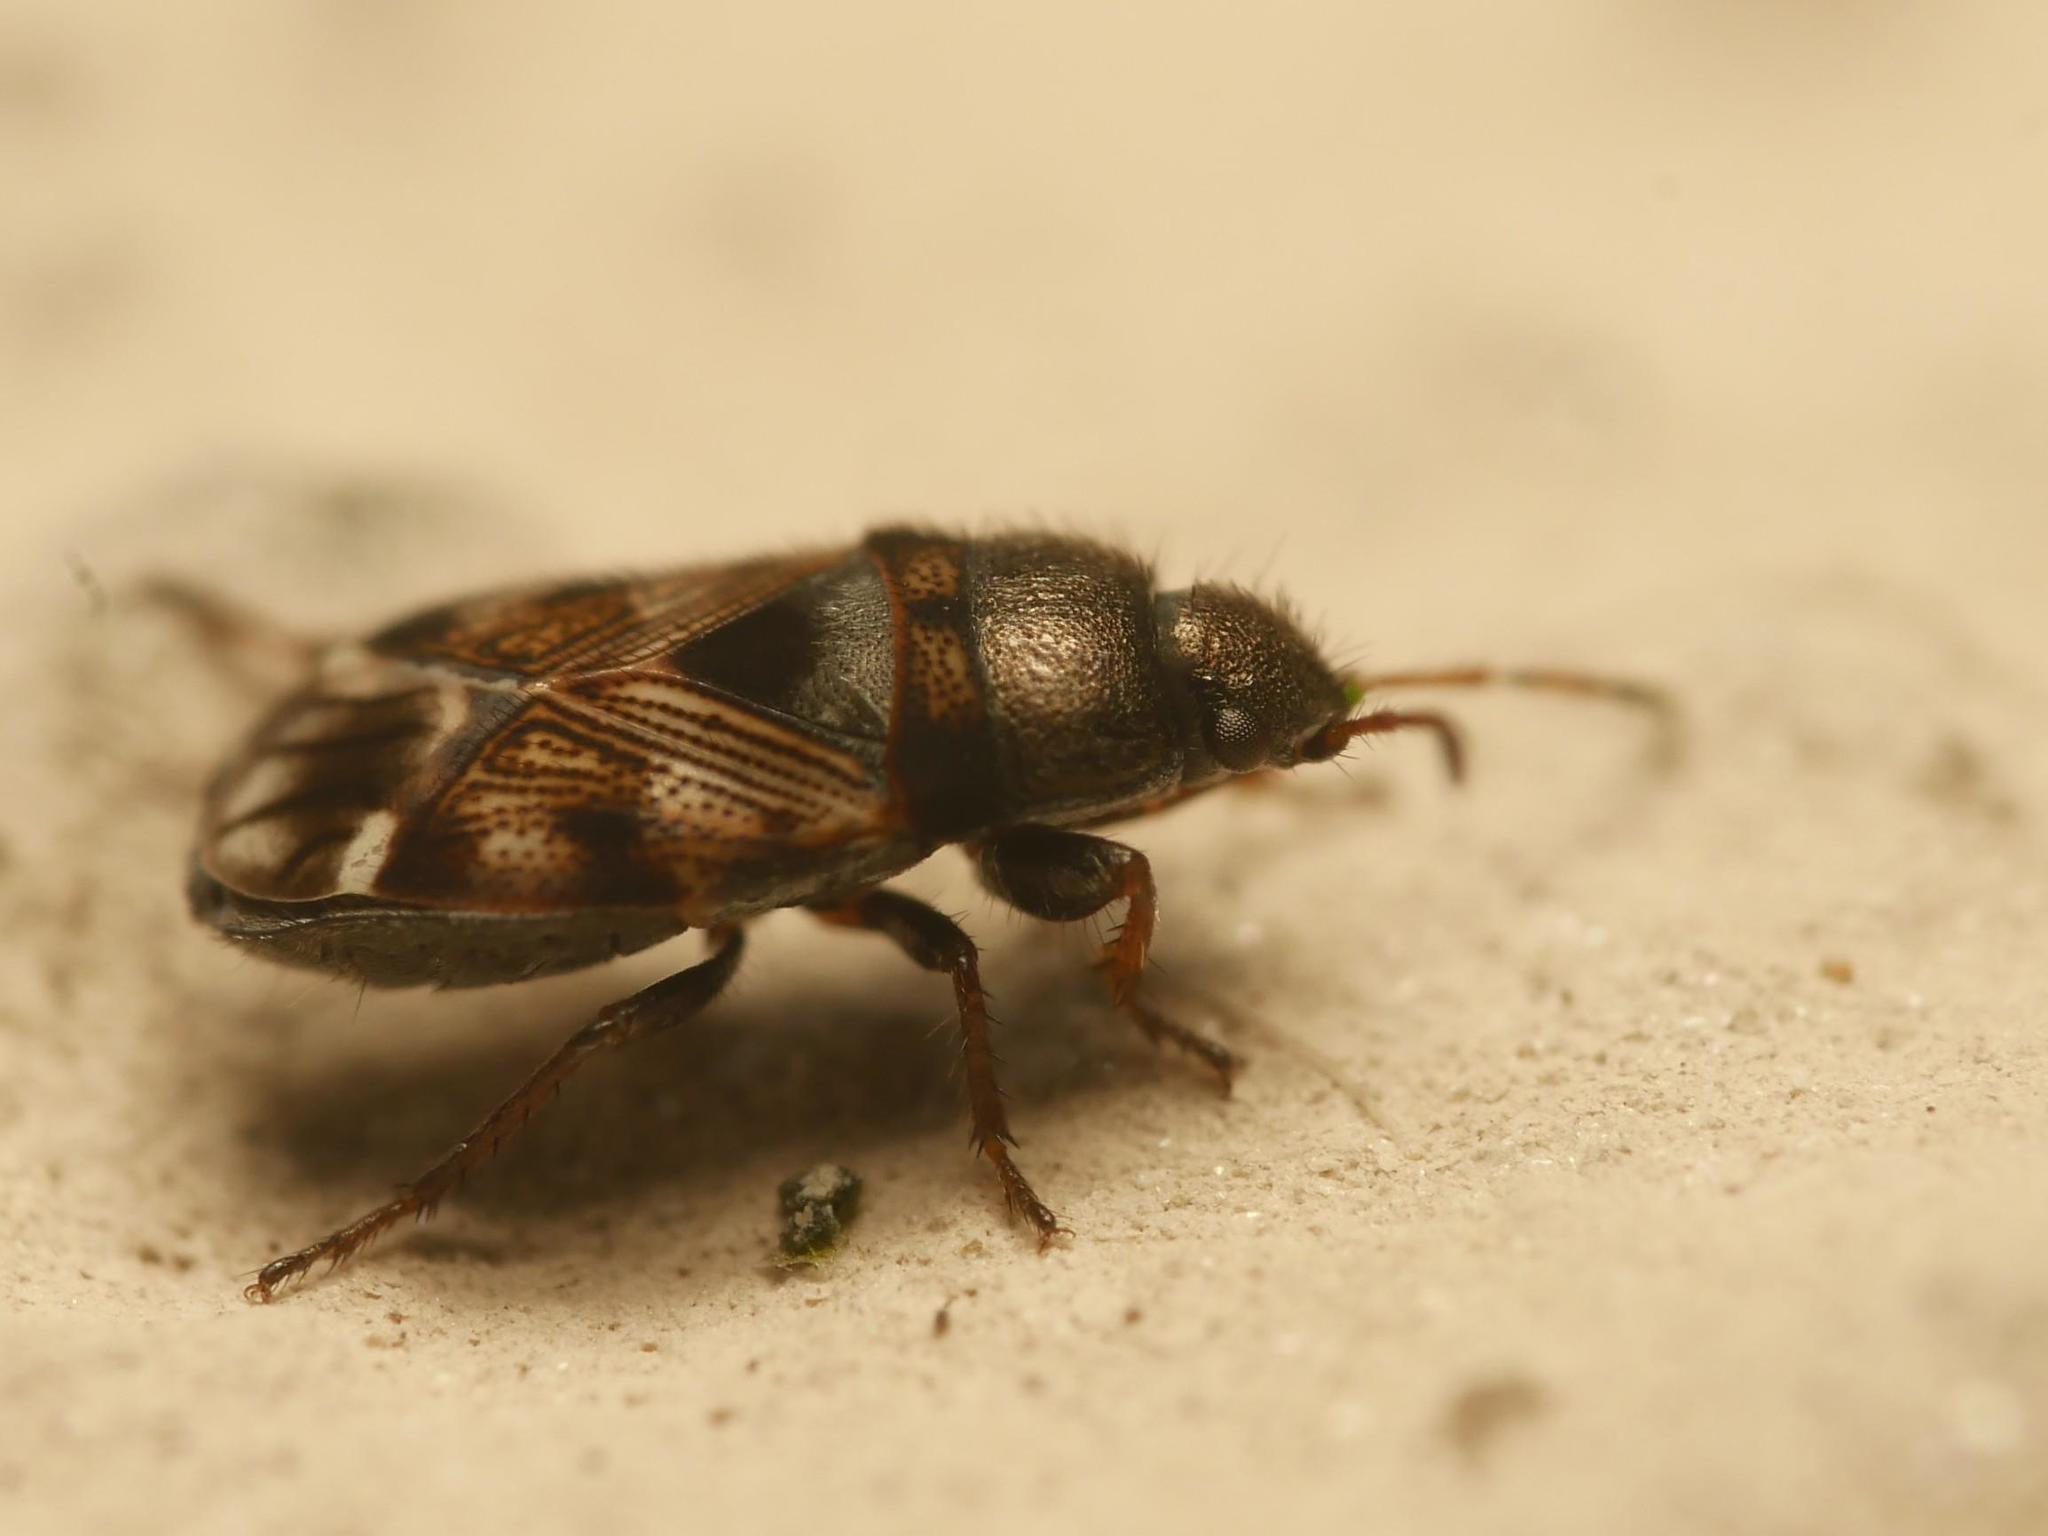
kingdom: Animalia
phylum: Arthropoda
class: Insecta
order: Hemiptera
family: Rhyparochromidae
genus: Pionosomus
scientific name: Pionosomus varius
